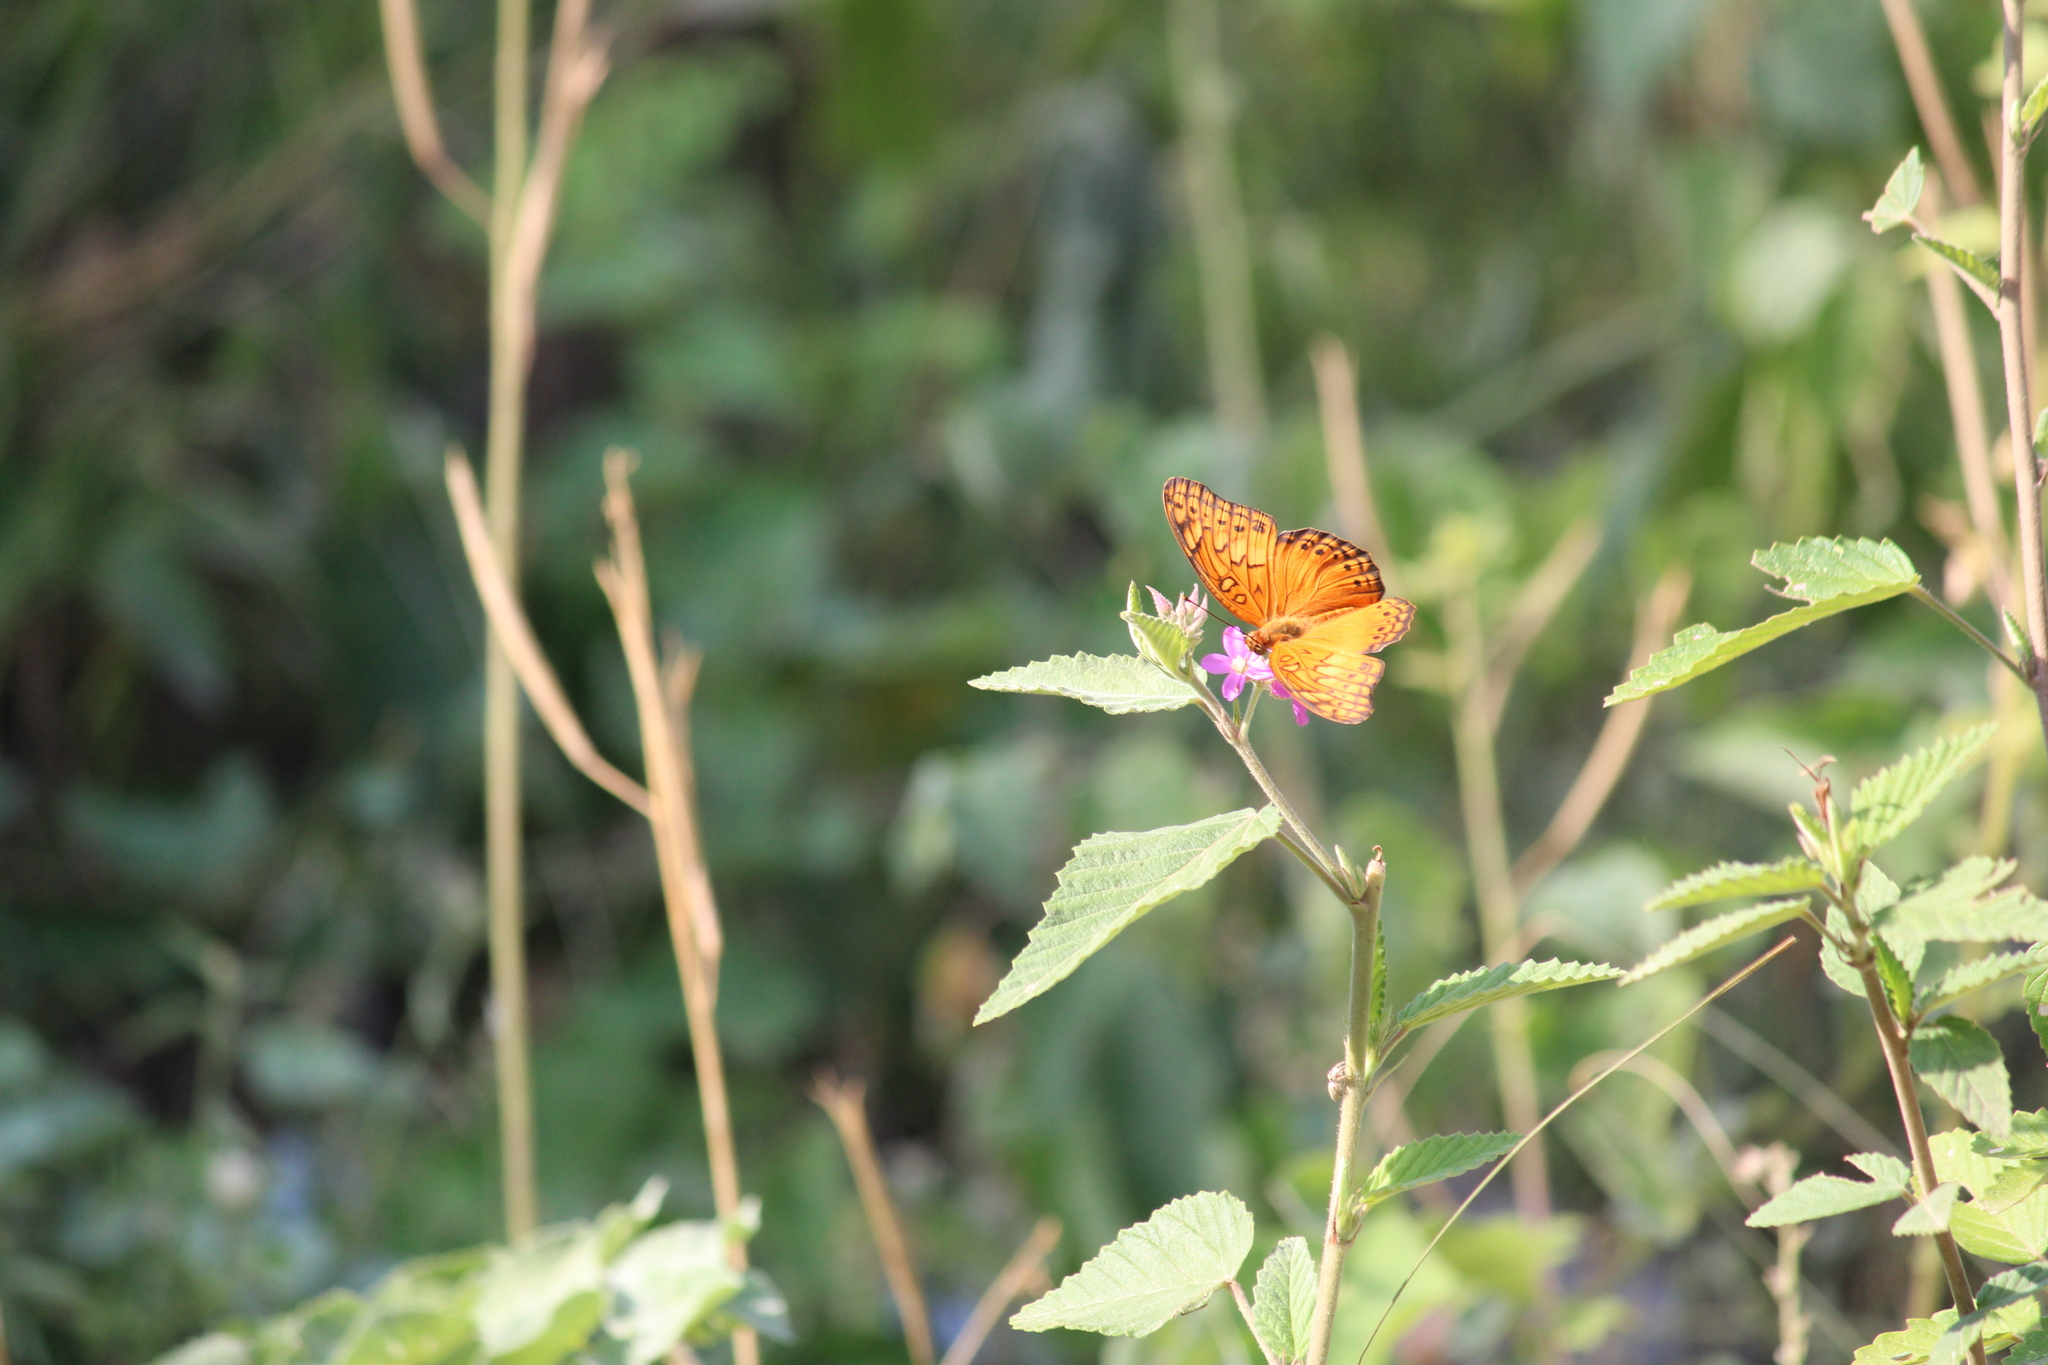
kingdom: Animalia
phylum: Arthropoda
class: Insecta
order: Lepidoptera
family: Nymphalidae
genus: Euptoieta
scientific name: Euptoieta hegesia
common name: Mexican fritillary
